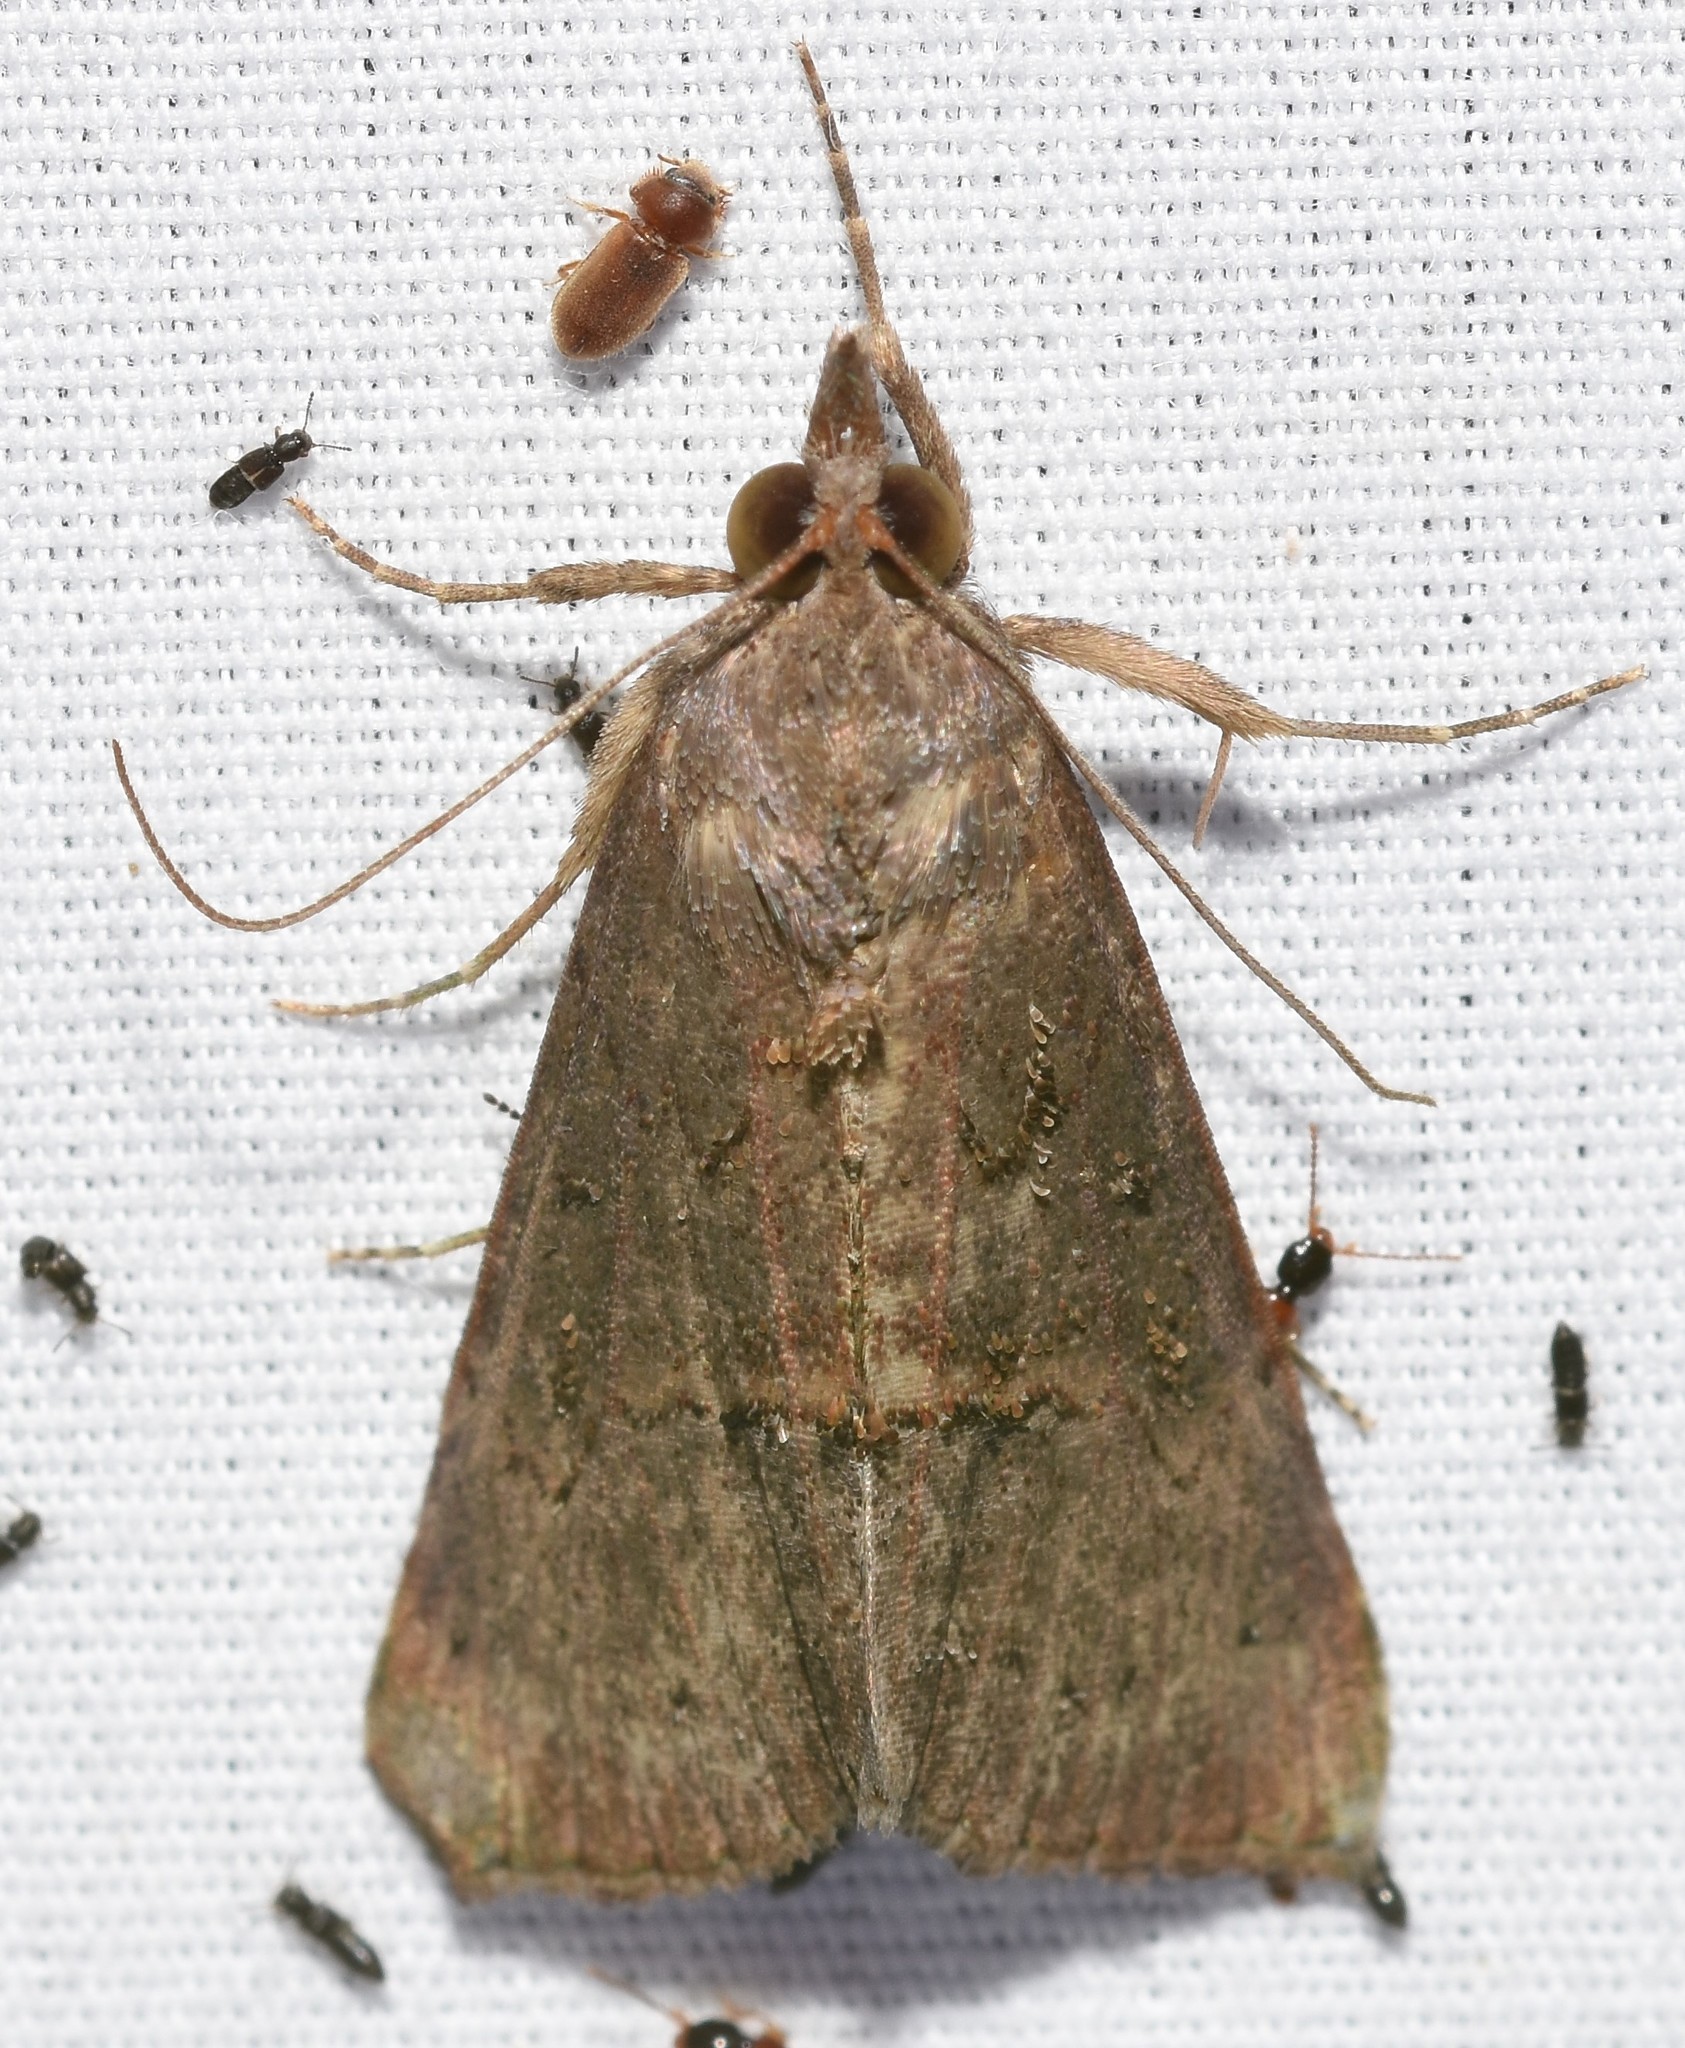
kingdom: Animalia
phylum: Arthropoda
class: Insecta
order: Lepidoptera
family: Erebidae
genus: Hypena
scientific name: Hypena scabra
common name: Green cloverworm
